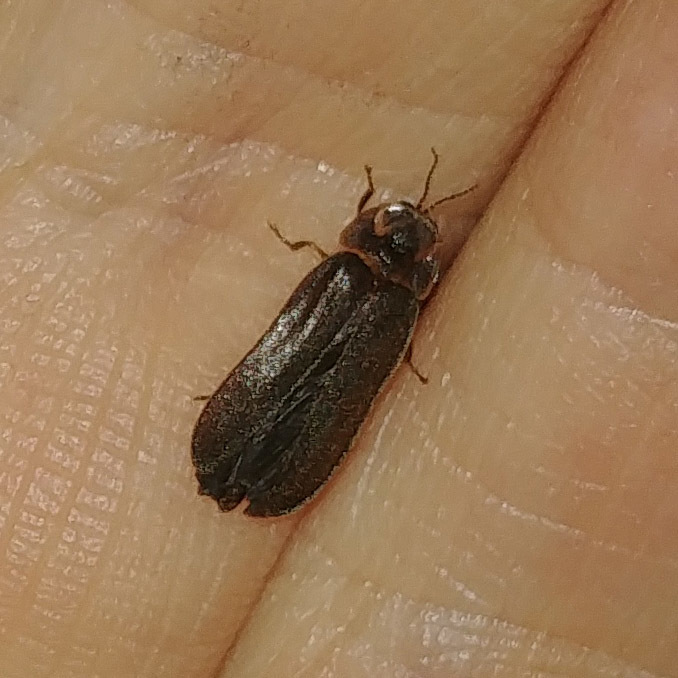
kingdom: Animalia
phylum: Arthropoda
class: Insecta
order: Coleoptera
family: Lampyridae
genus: Lampyris
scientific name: Lampyris noctiluca
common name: Glow-worm
